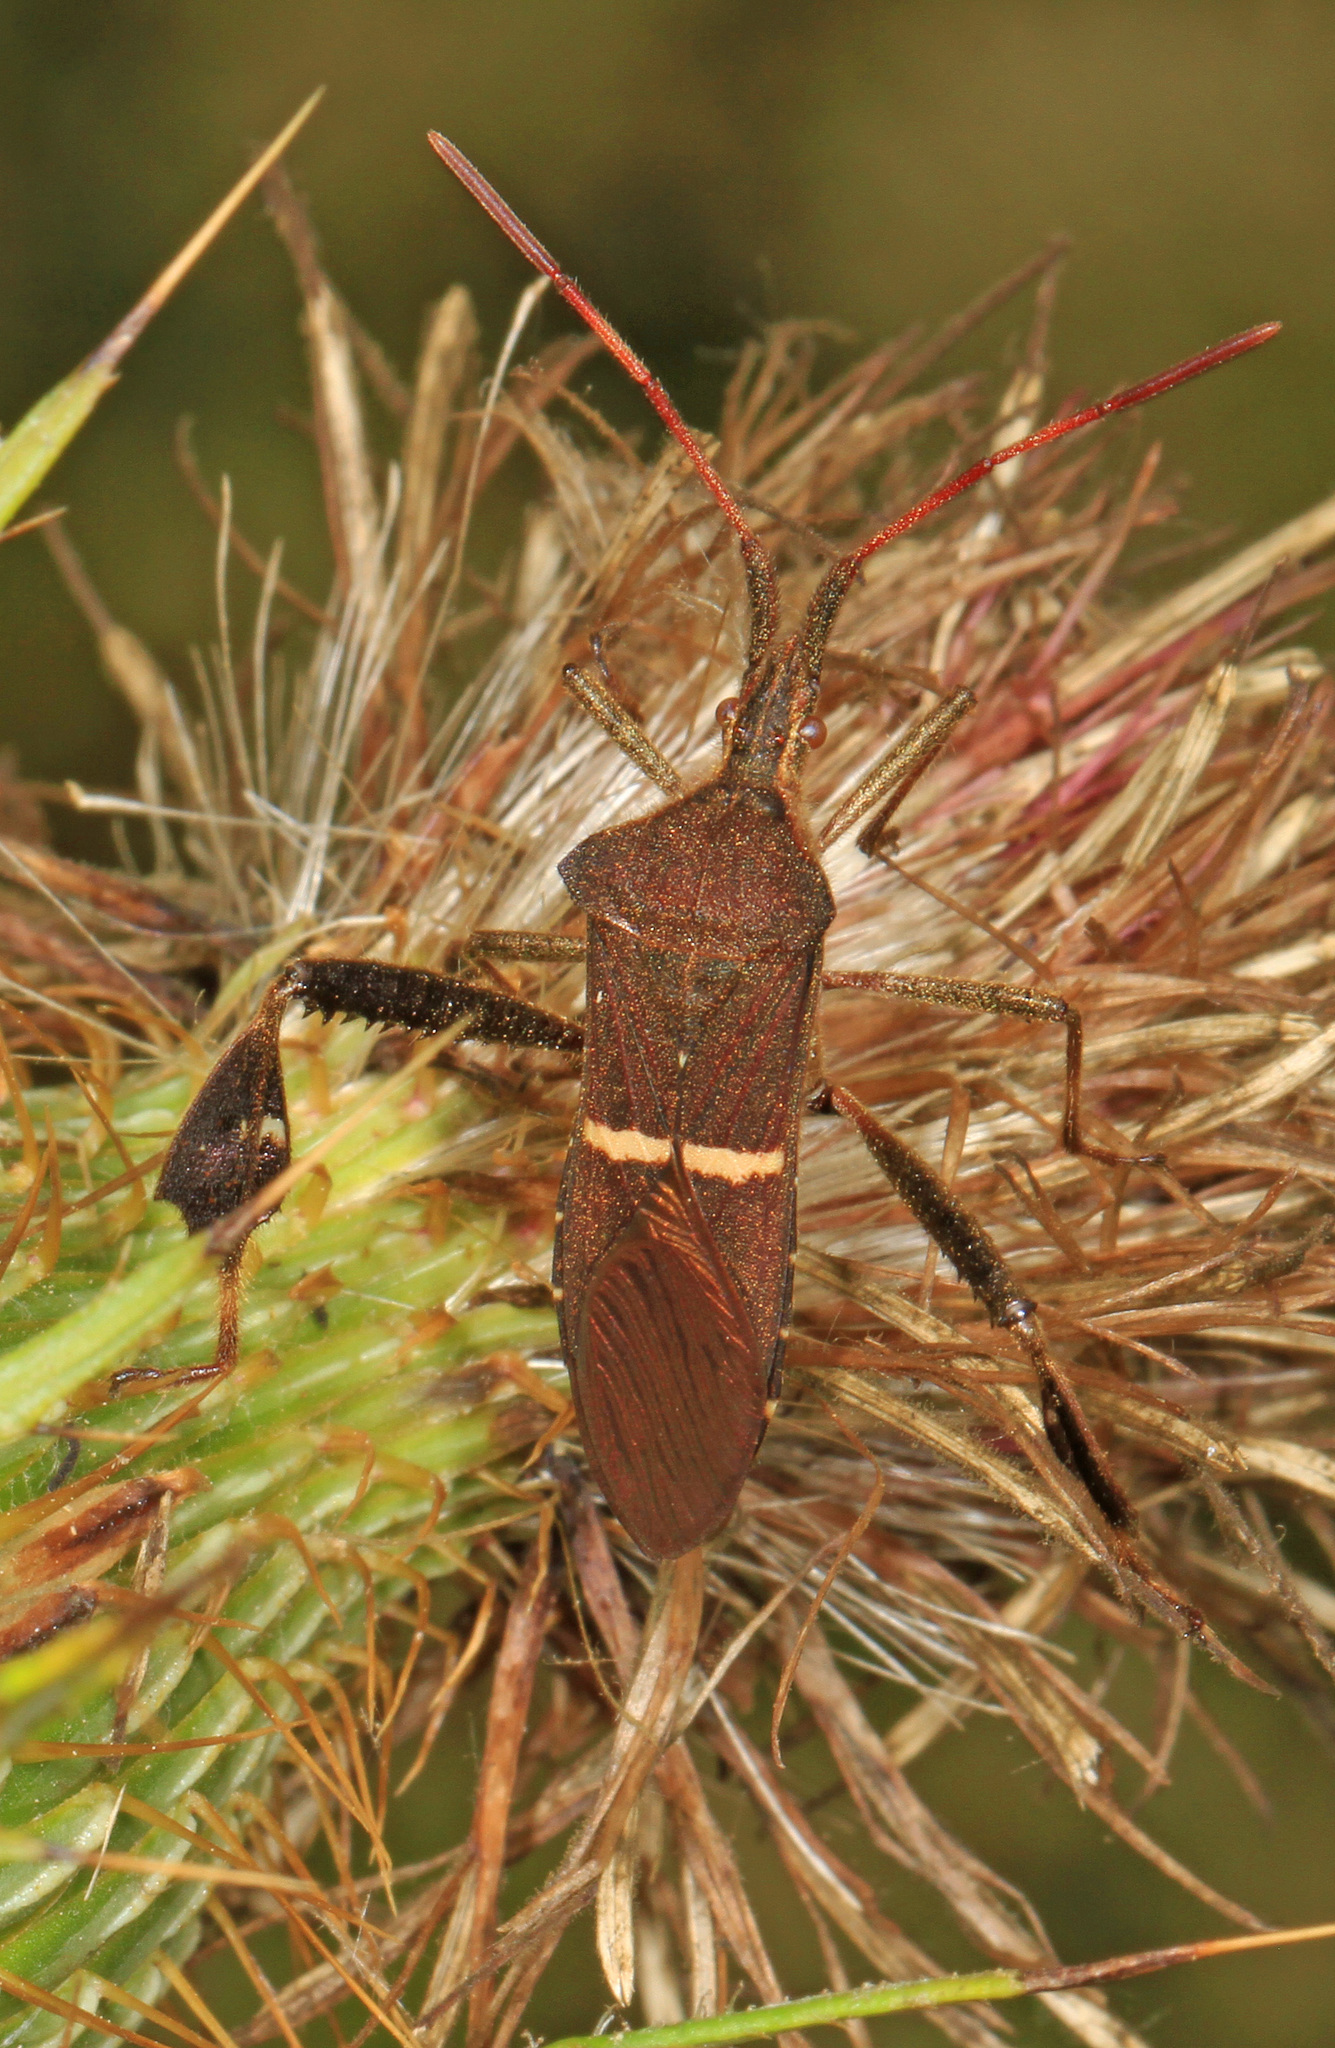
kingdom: Animalia
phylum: Arthropoda
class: Insecta
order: Hemiptera
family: Coreidae
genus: Leptoglossus
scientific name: Leptoglossus phyllopus
